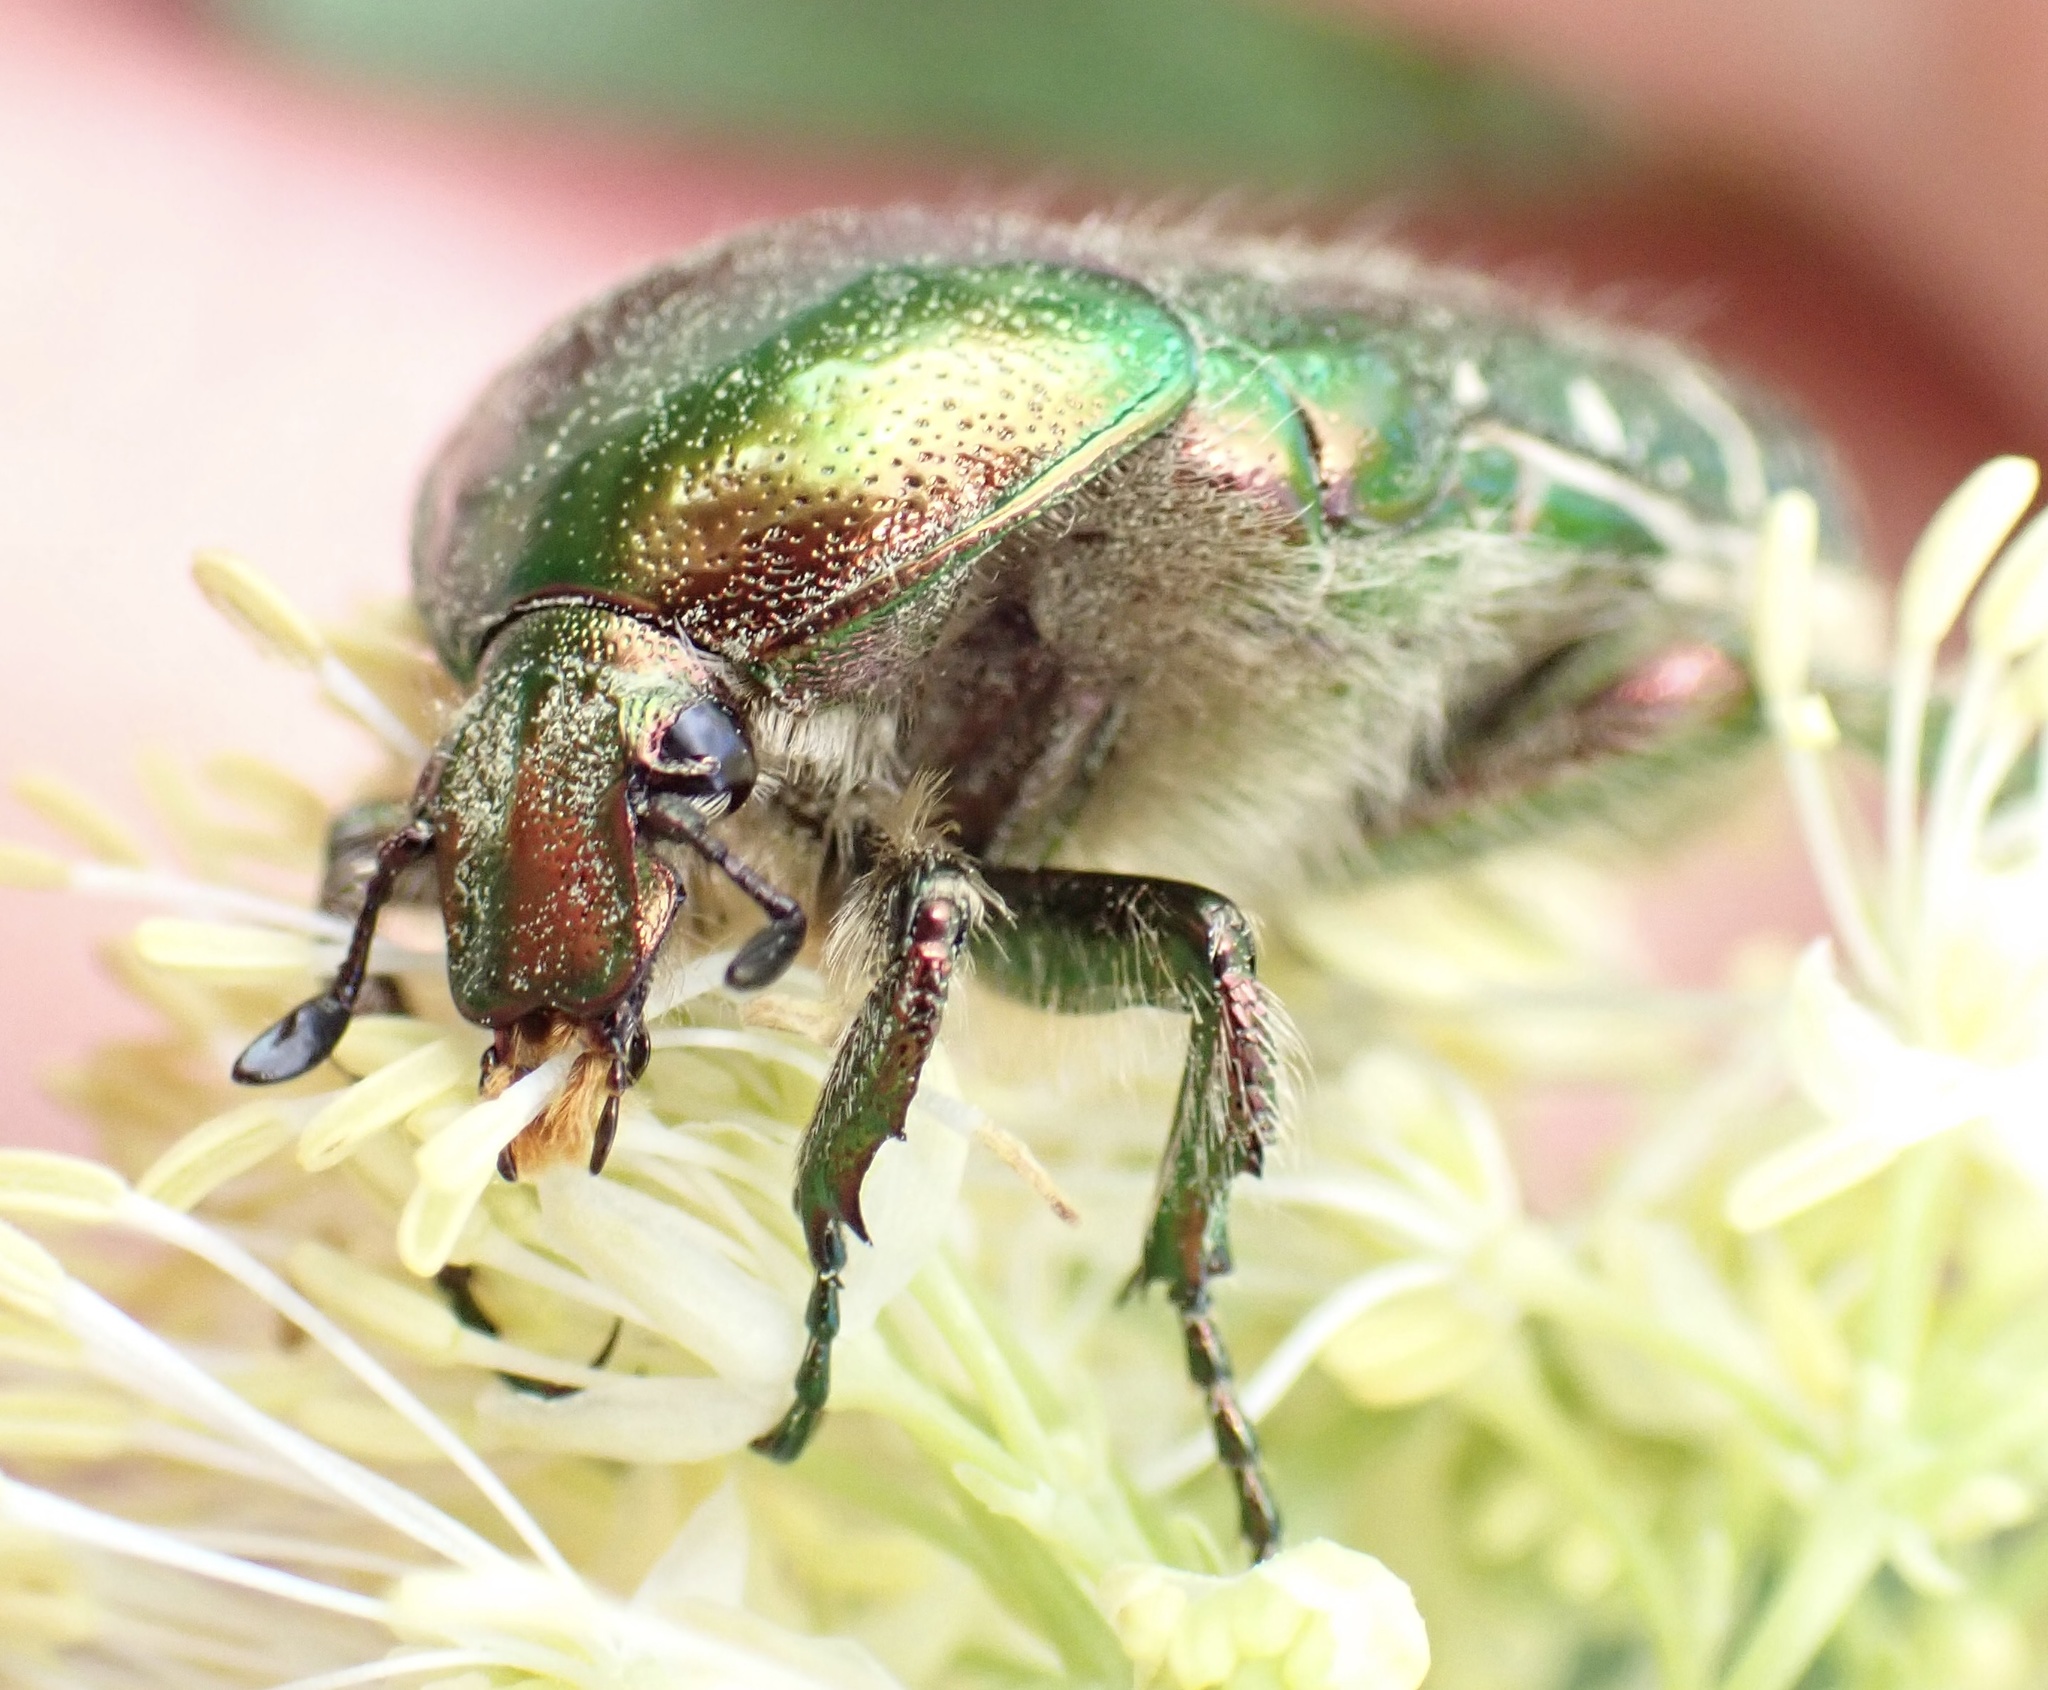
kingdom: Animalia
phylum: Arthropoda
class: Insecta
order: Coleoptera
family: Scarabaeidae
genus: Cetonia
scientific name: Cetonia aurata
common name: Rose chafer
